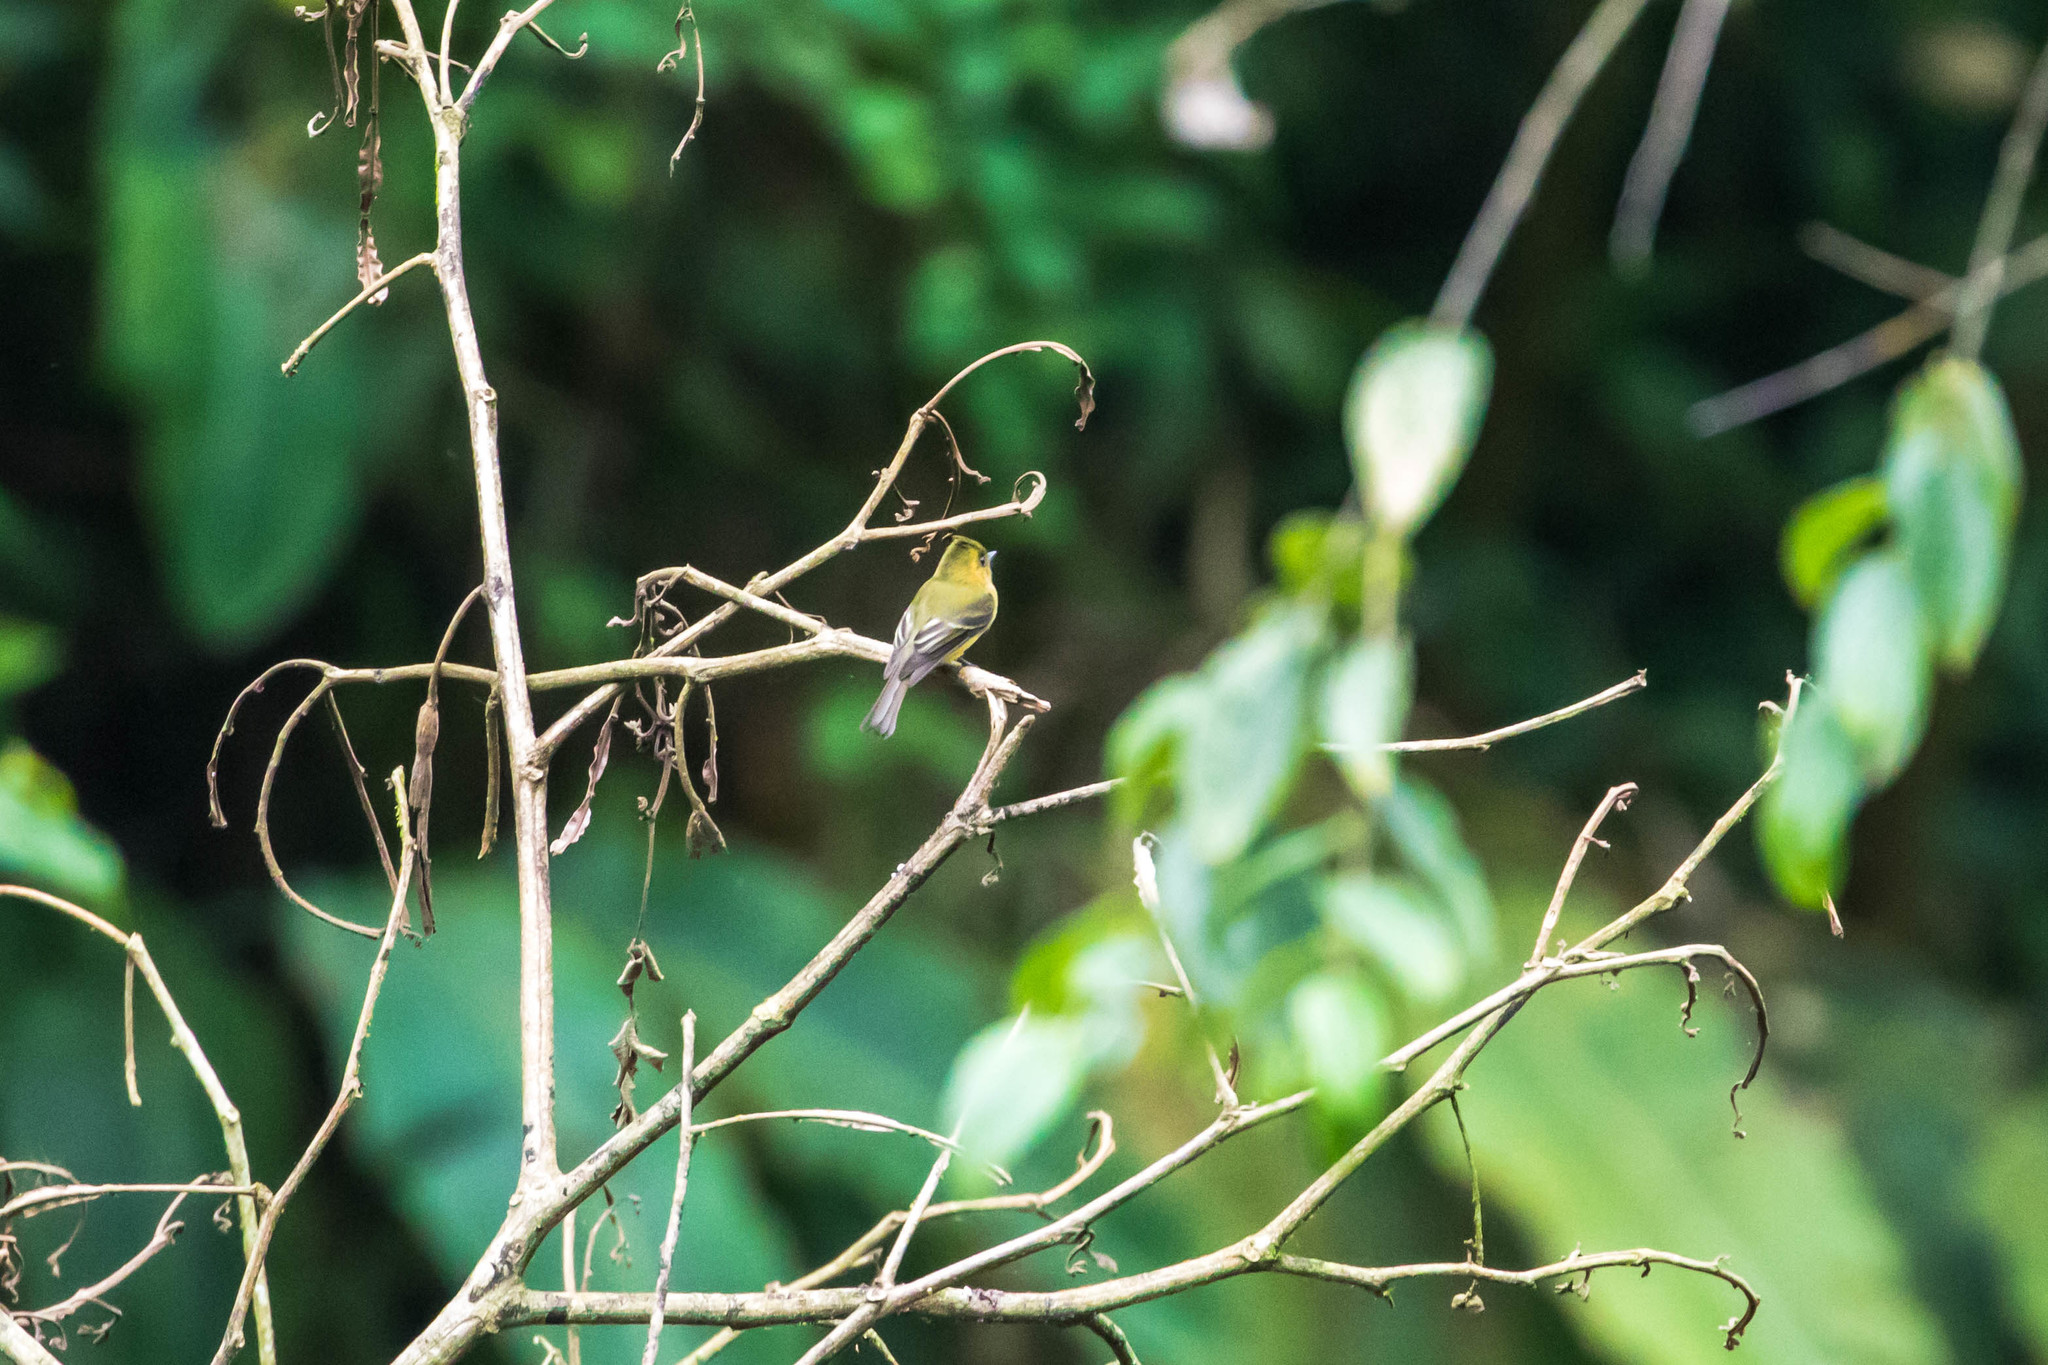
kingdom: Animalia
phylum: Chordata
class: Aves
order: Passeriformes
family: Tyrannidae
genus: Mitrephanes
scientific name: Mitrephanes phaeocercus
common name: Northern tufted flycatcher
